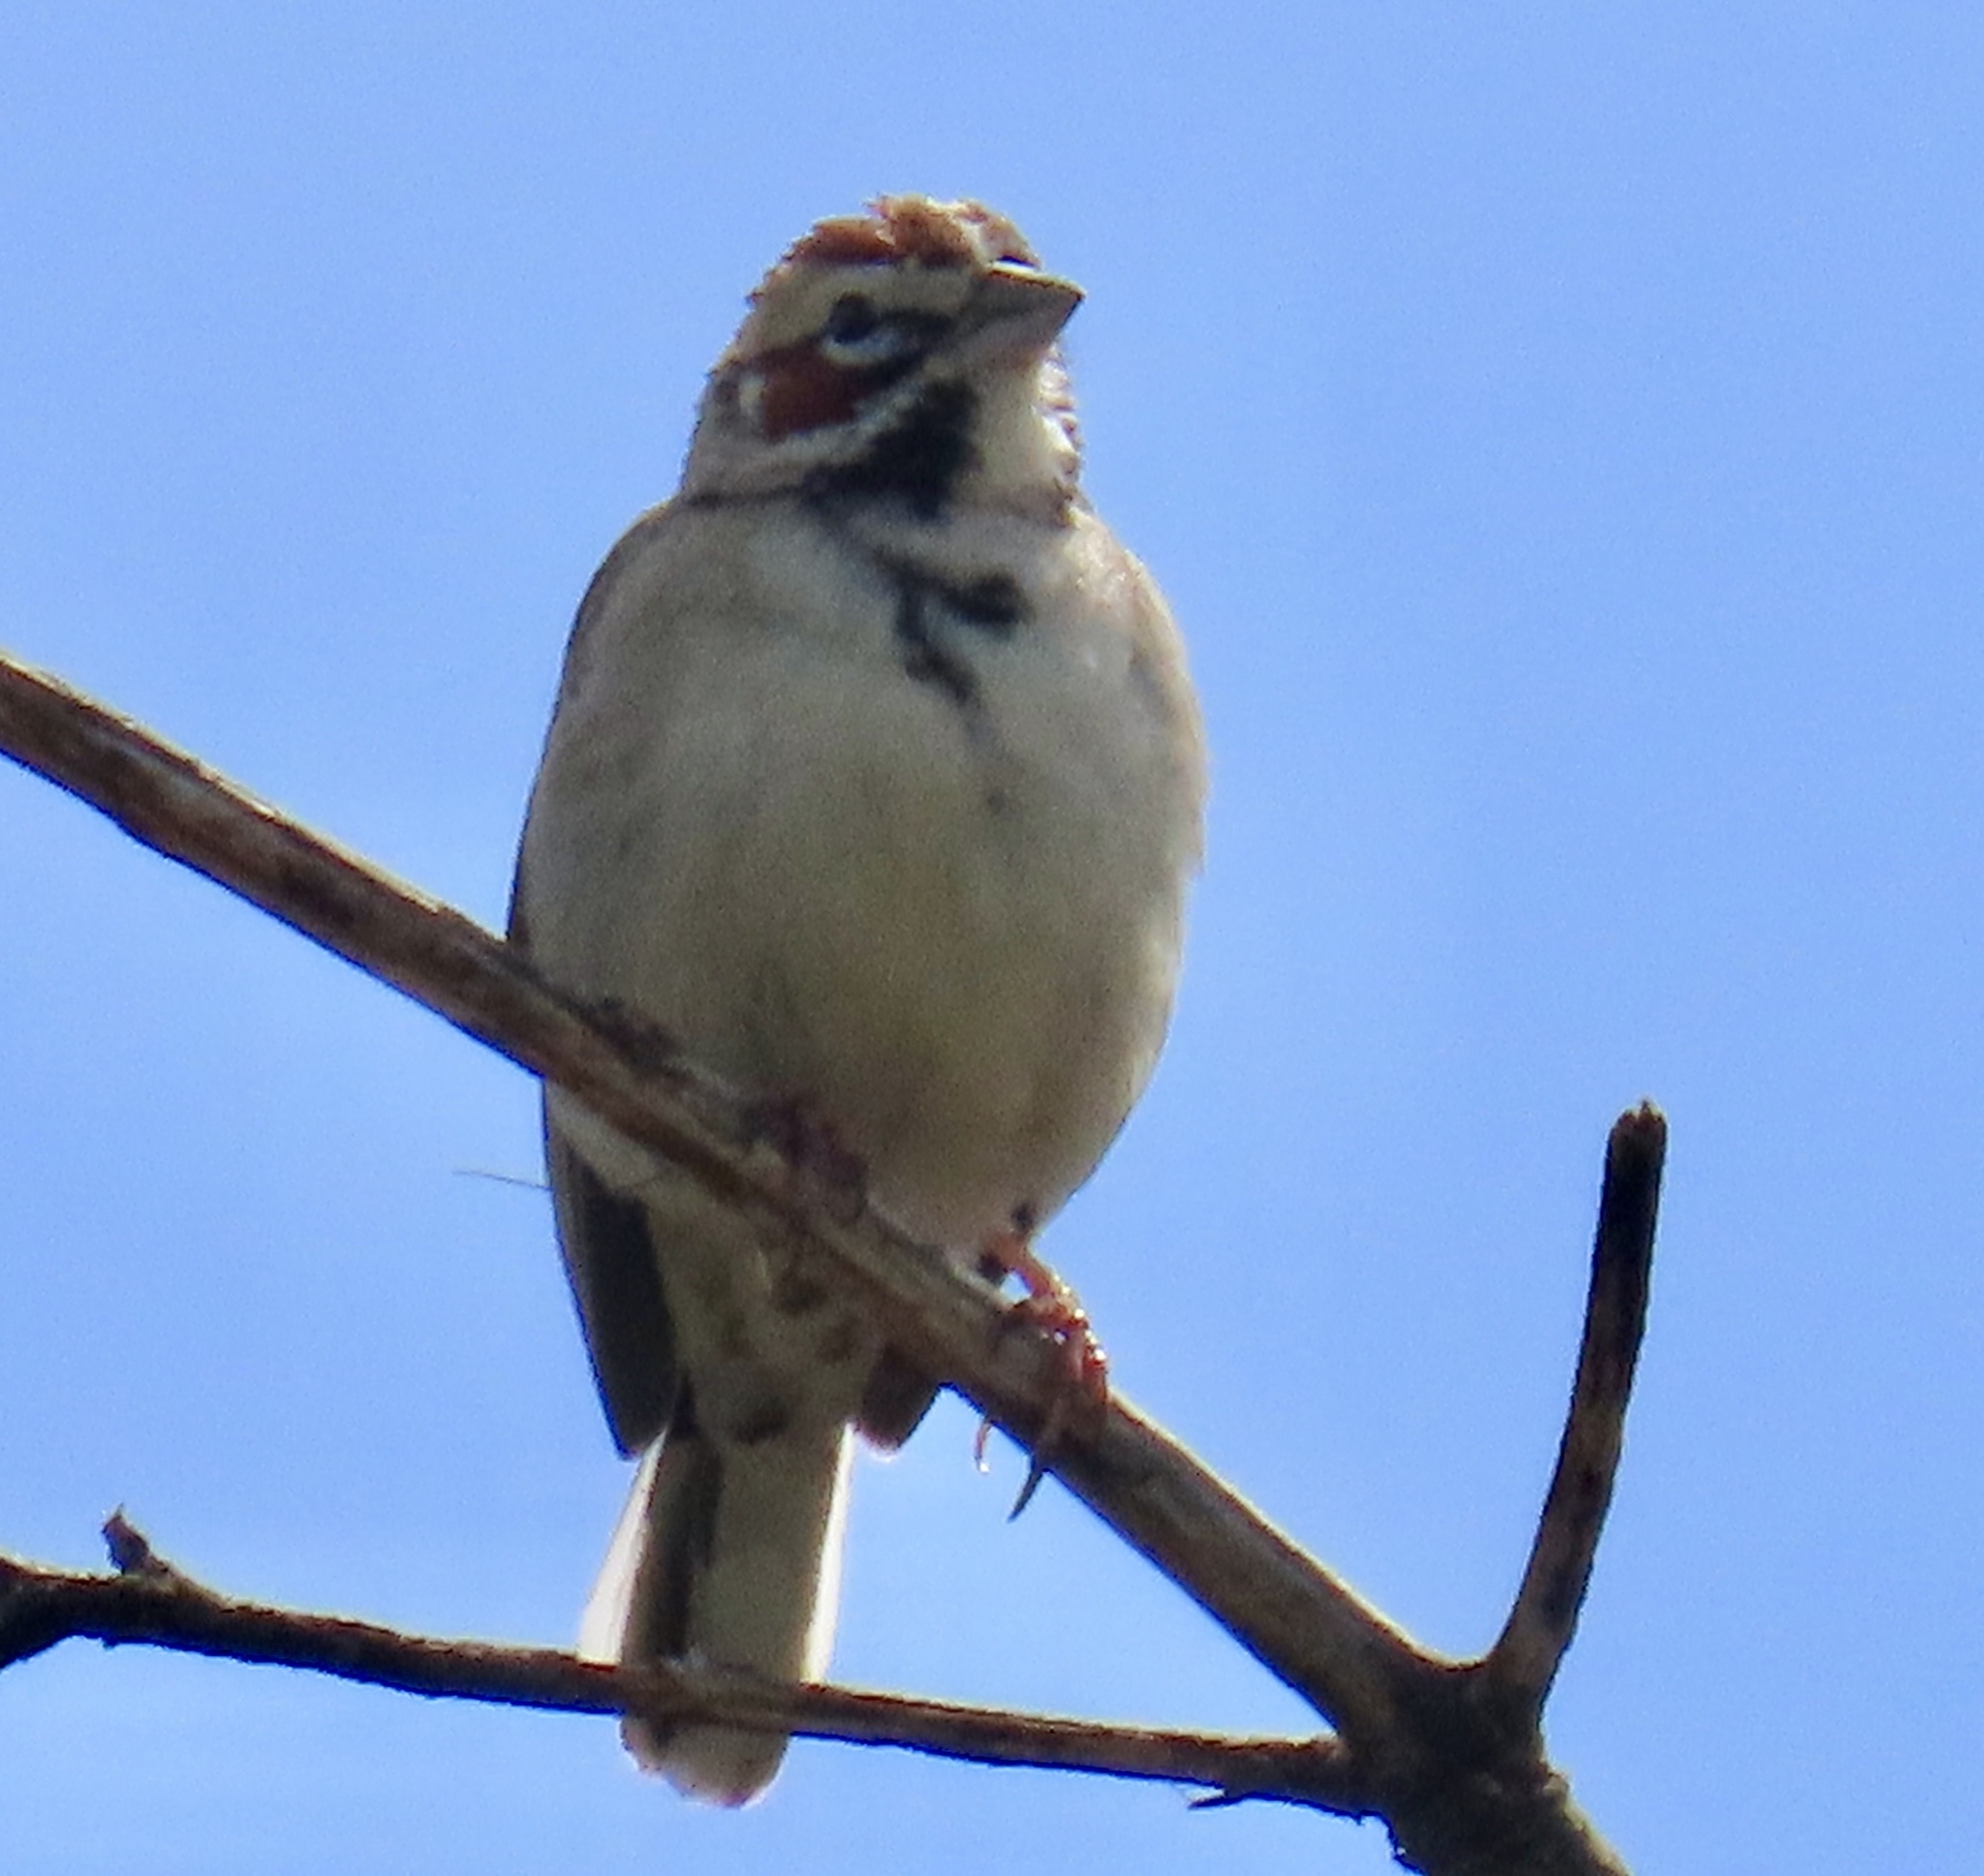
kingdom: Animalia
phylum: Chordata
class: Aves
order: Passeriformes
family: Passerellidae
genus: Chondestes
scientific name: Chondestes grammacus
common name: Lark sparrow
